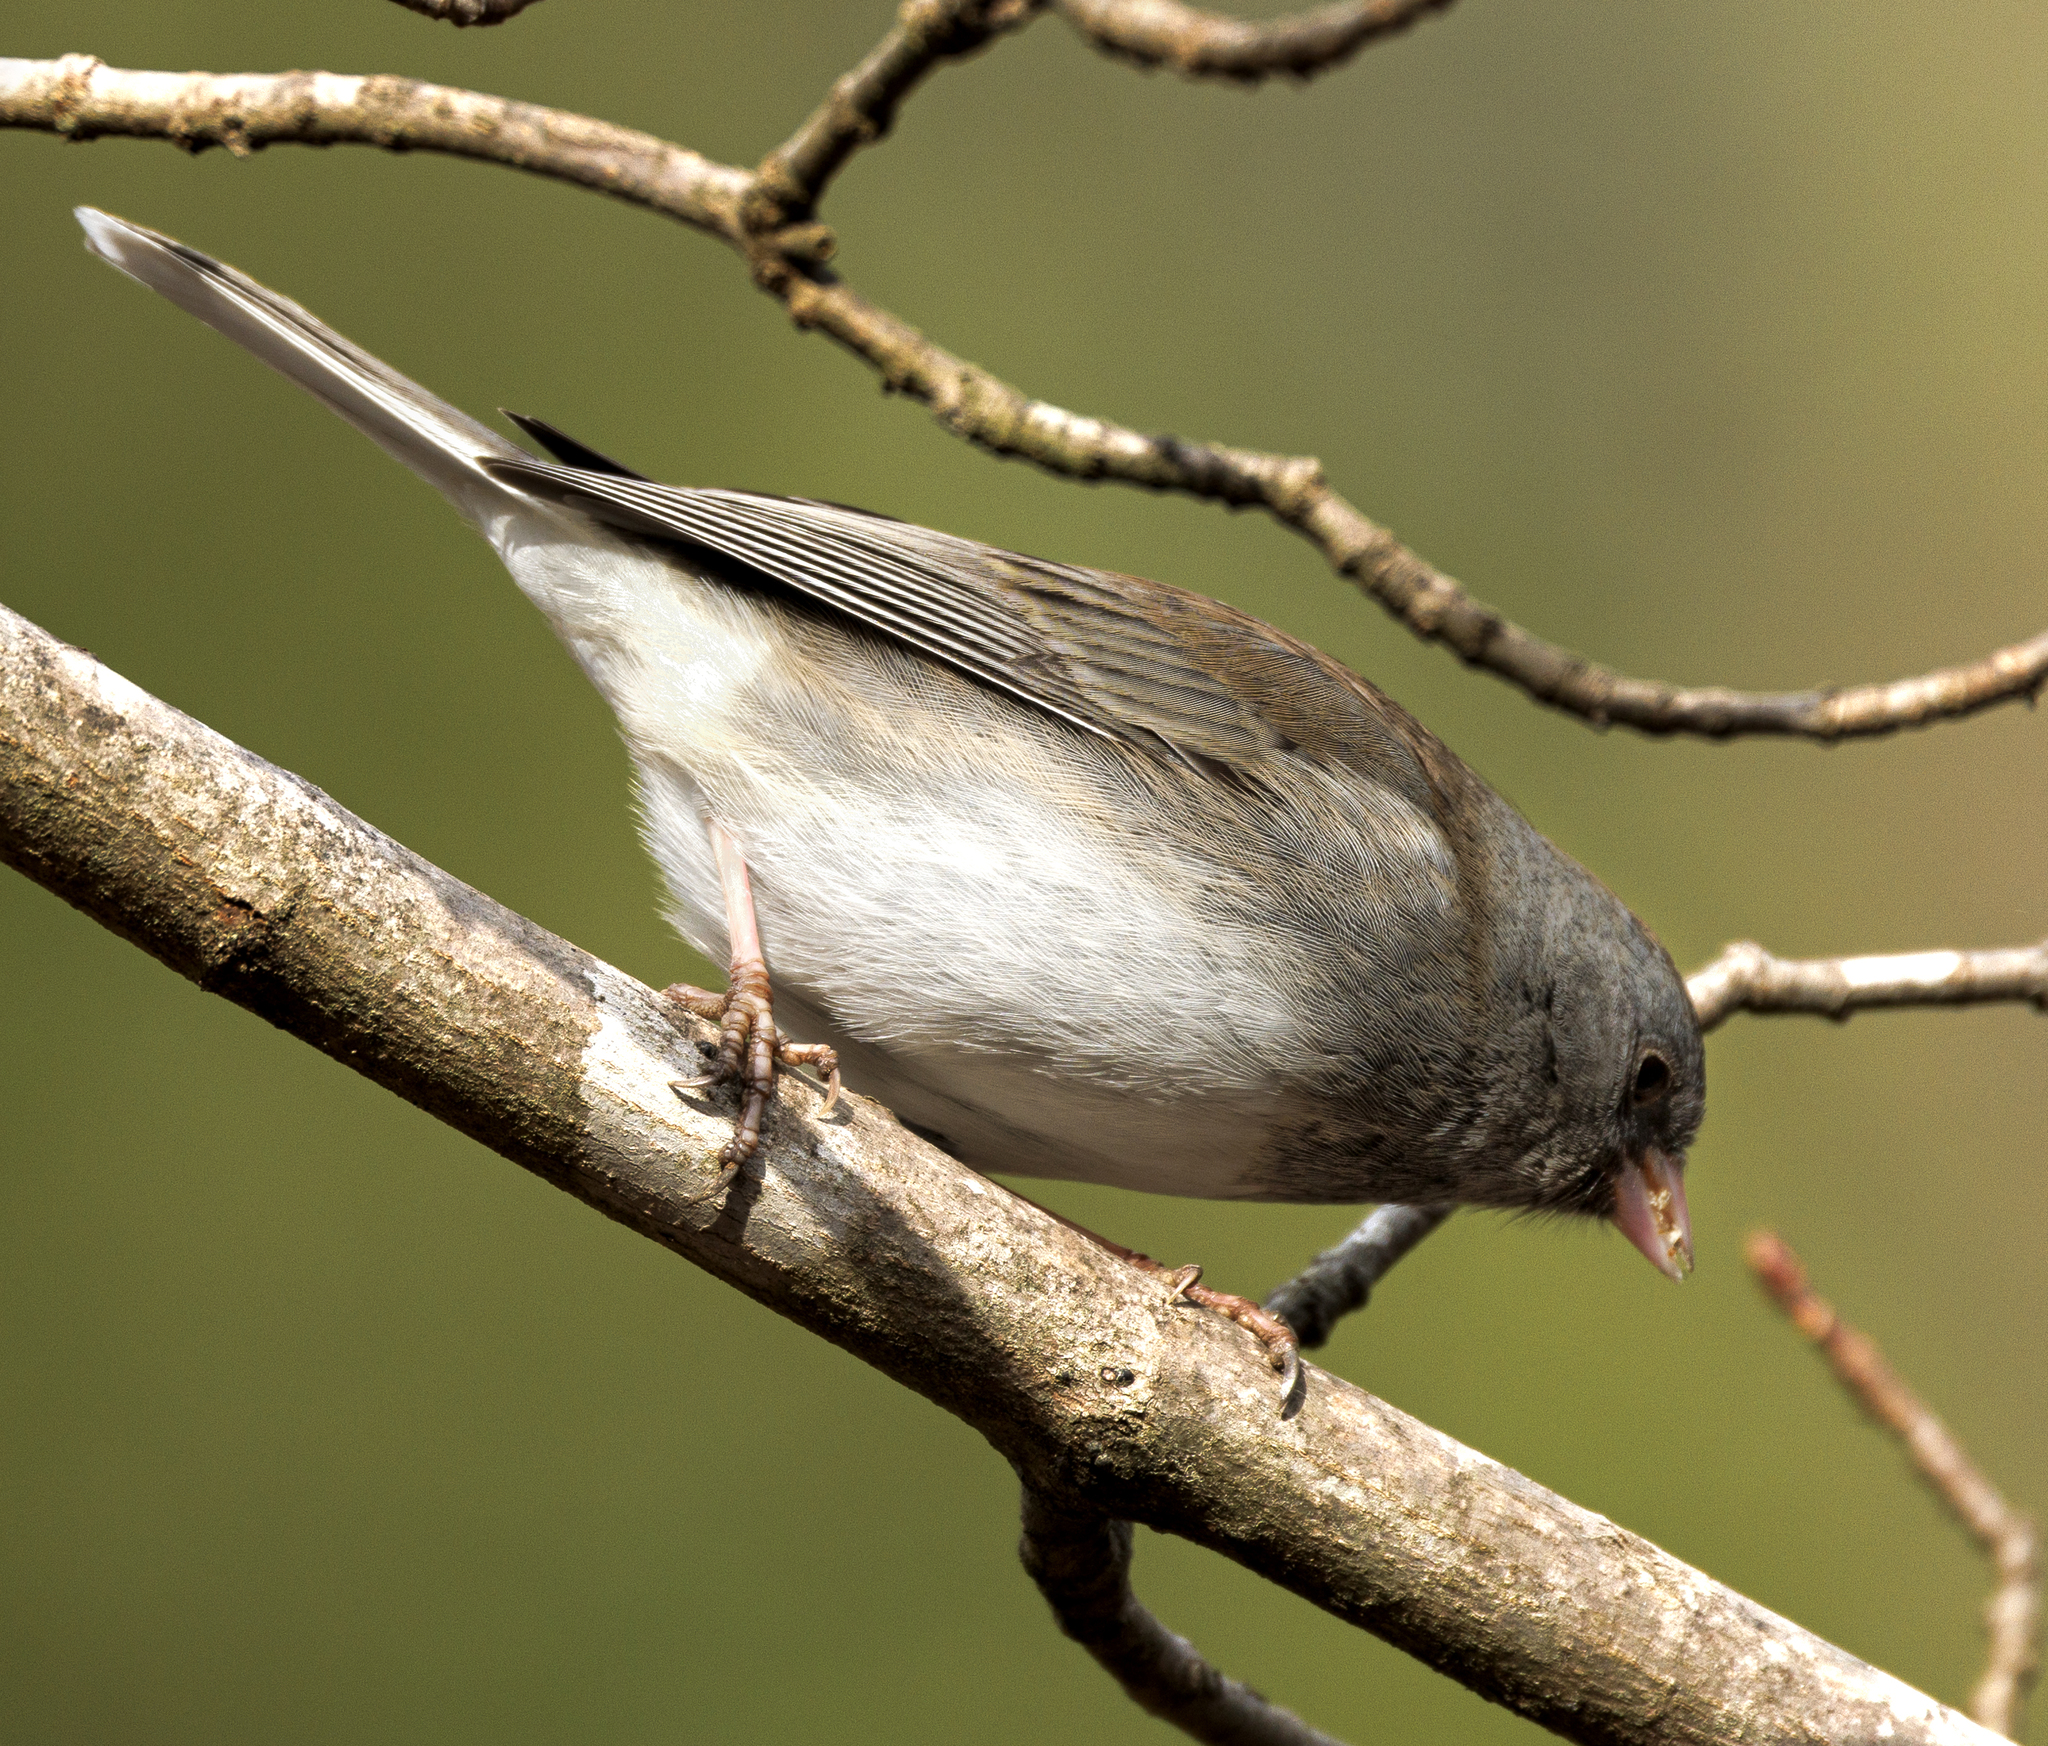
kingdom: Animalia
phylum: Chordata
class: Aves
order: Passeriformes
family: Passerellidae
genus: Junco
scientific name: Junco hyemalis
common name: Dark-eyed junco
